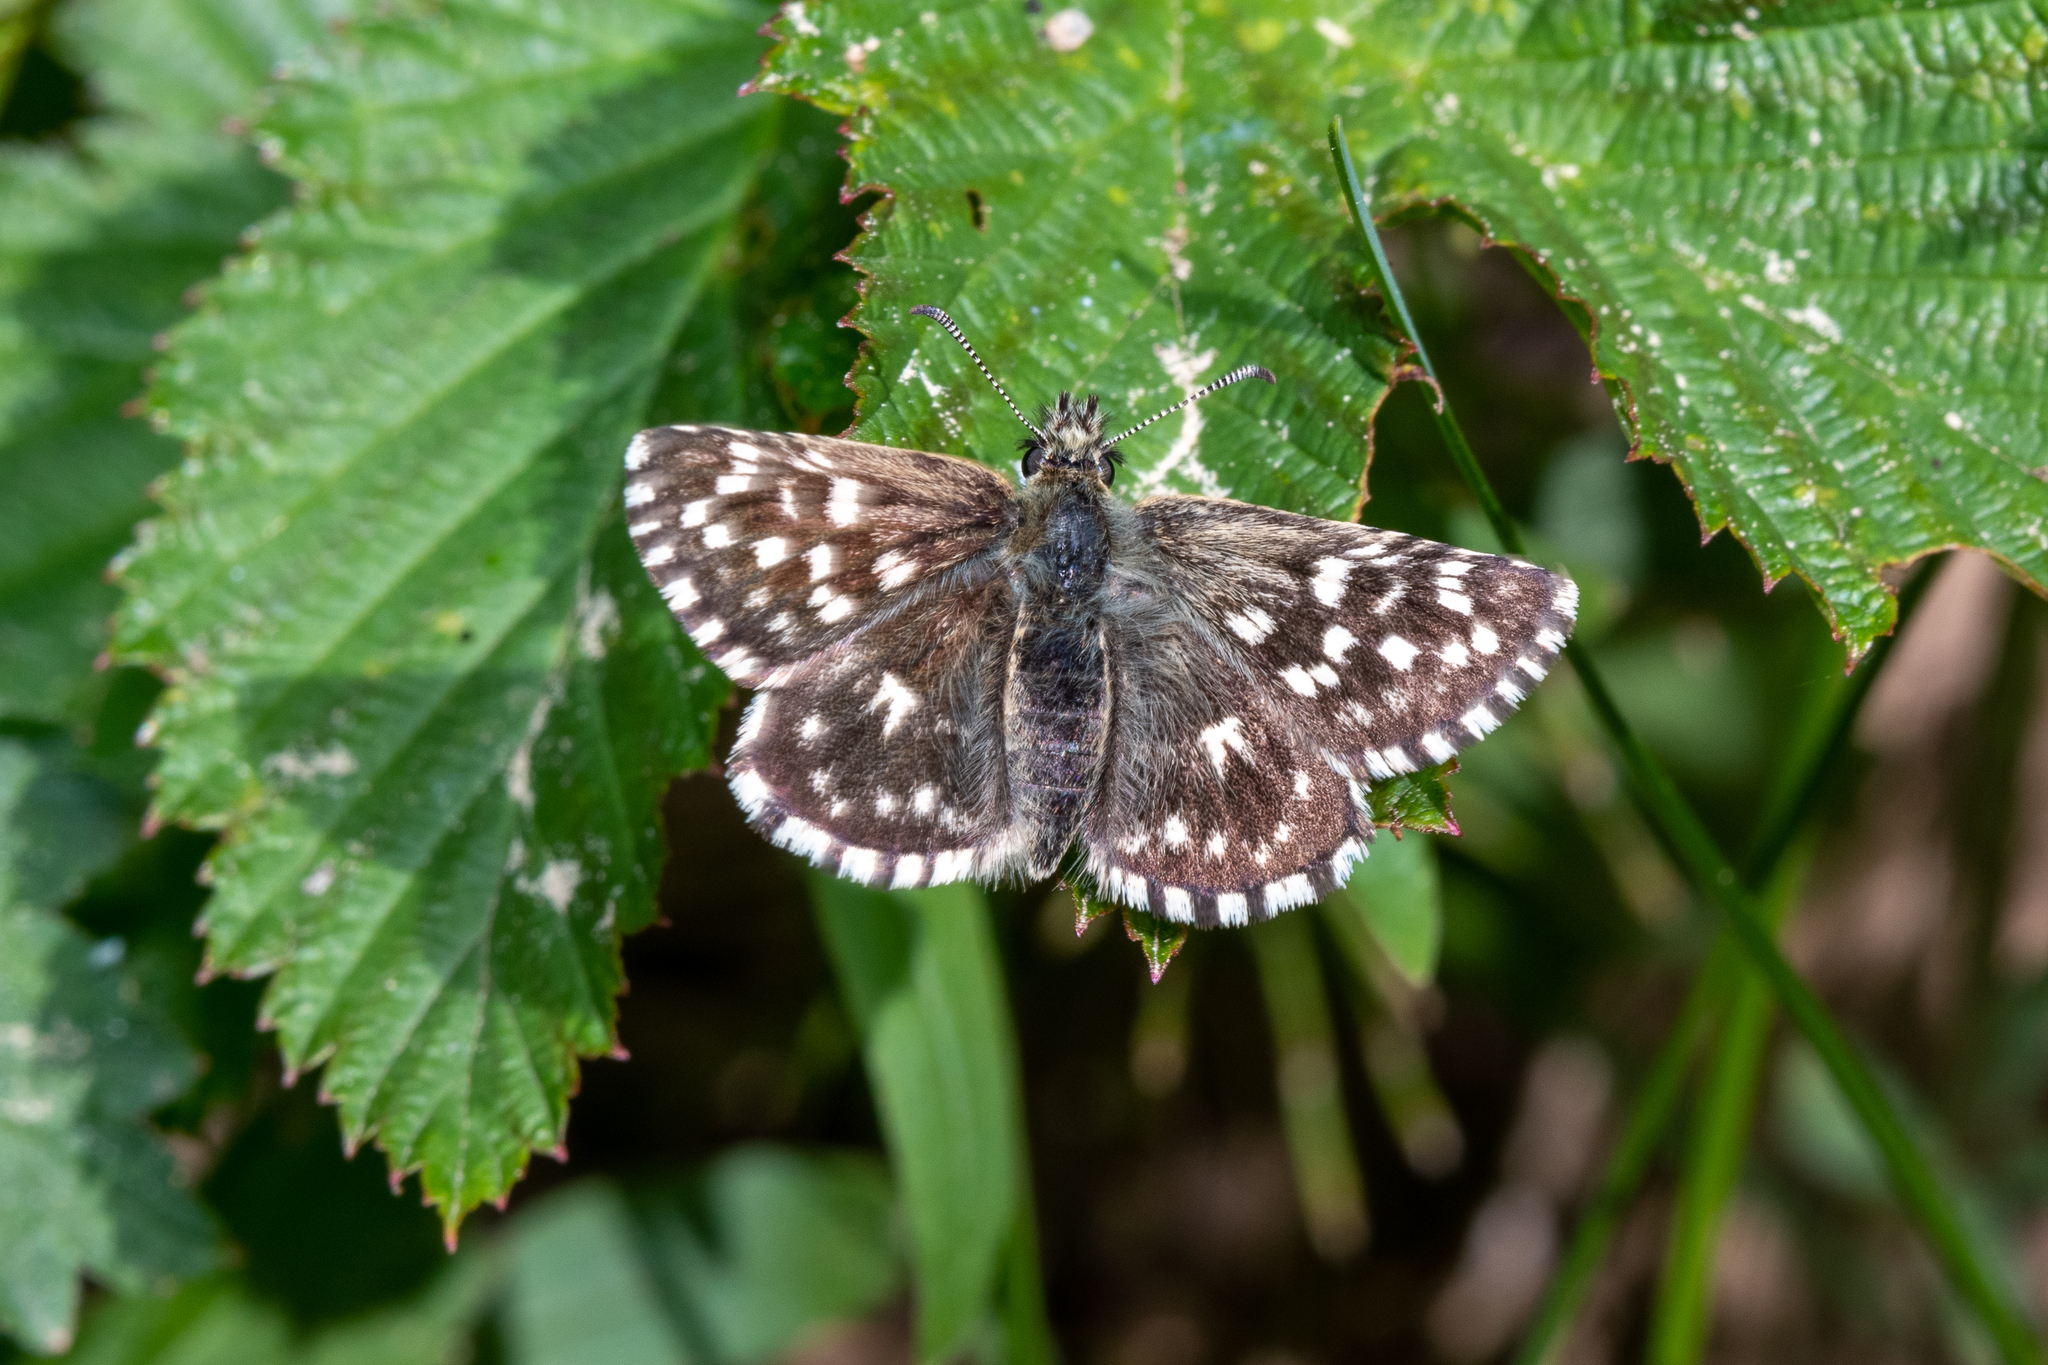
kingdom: Animalia
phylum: Arthropoda
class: Insecta
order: Lepidoptera
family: Hesperiidae
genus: Pyrgus
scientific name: Pyrgus malvae
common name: Grizzled skipper
